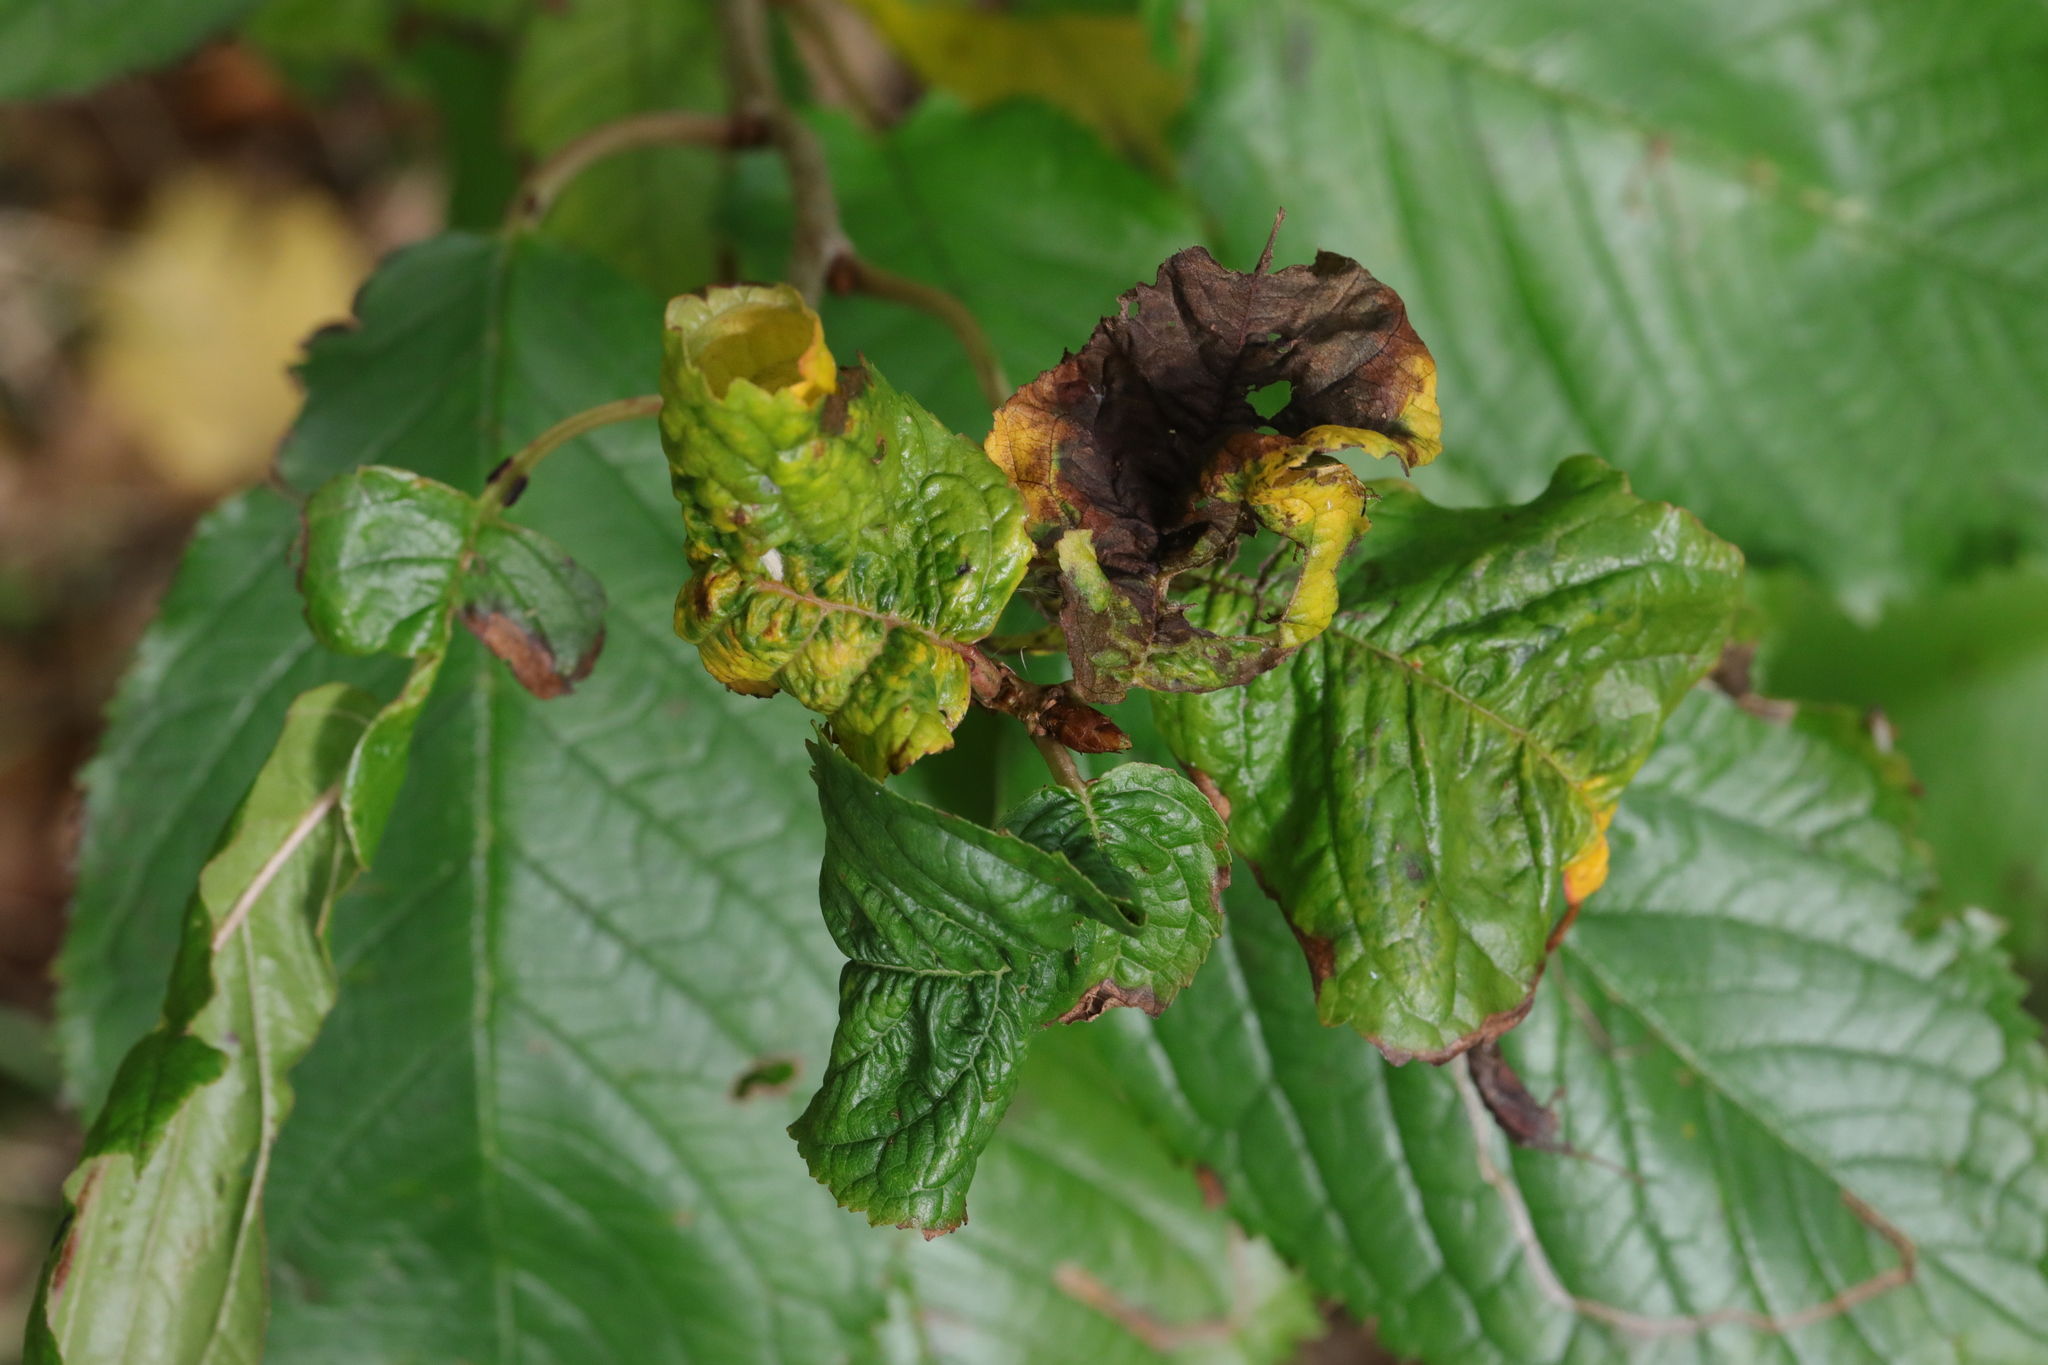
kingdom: Animalia
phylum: Arthropoda
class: Insecta
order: Hemiptera
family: Aphididae
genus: Myzus
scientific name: Myzus cerasi
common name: Black cherry aphid
